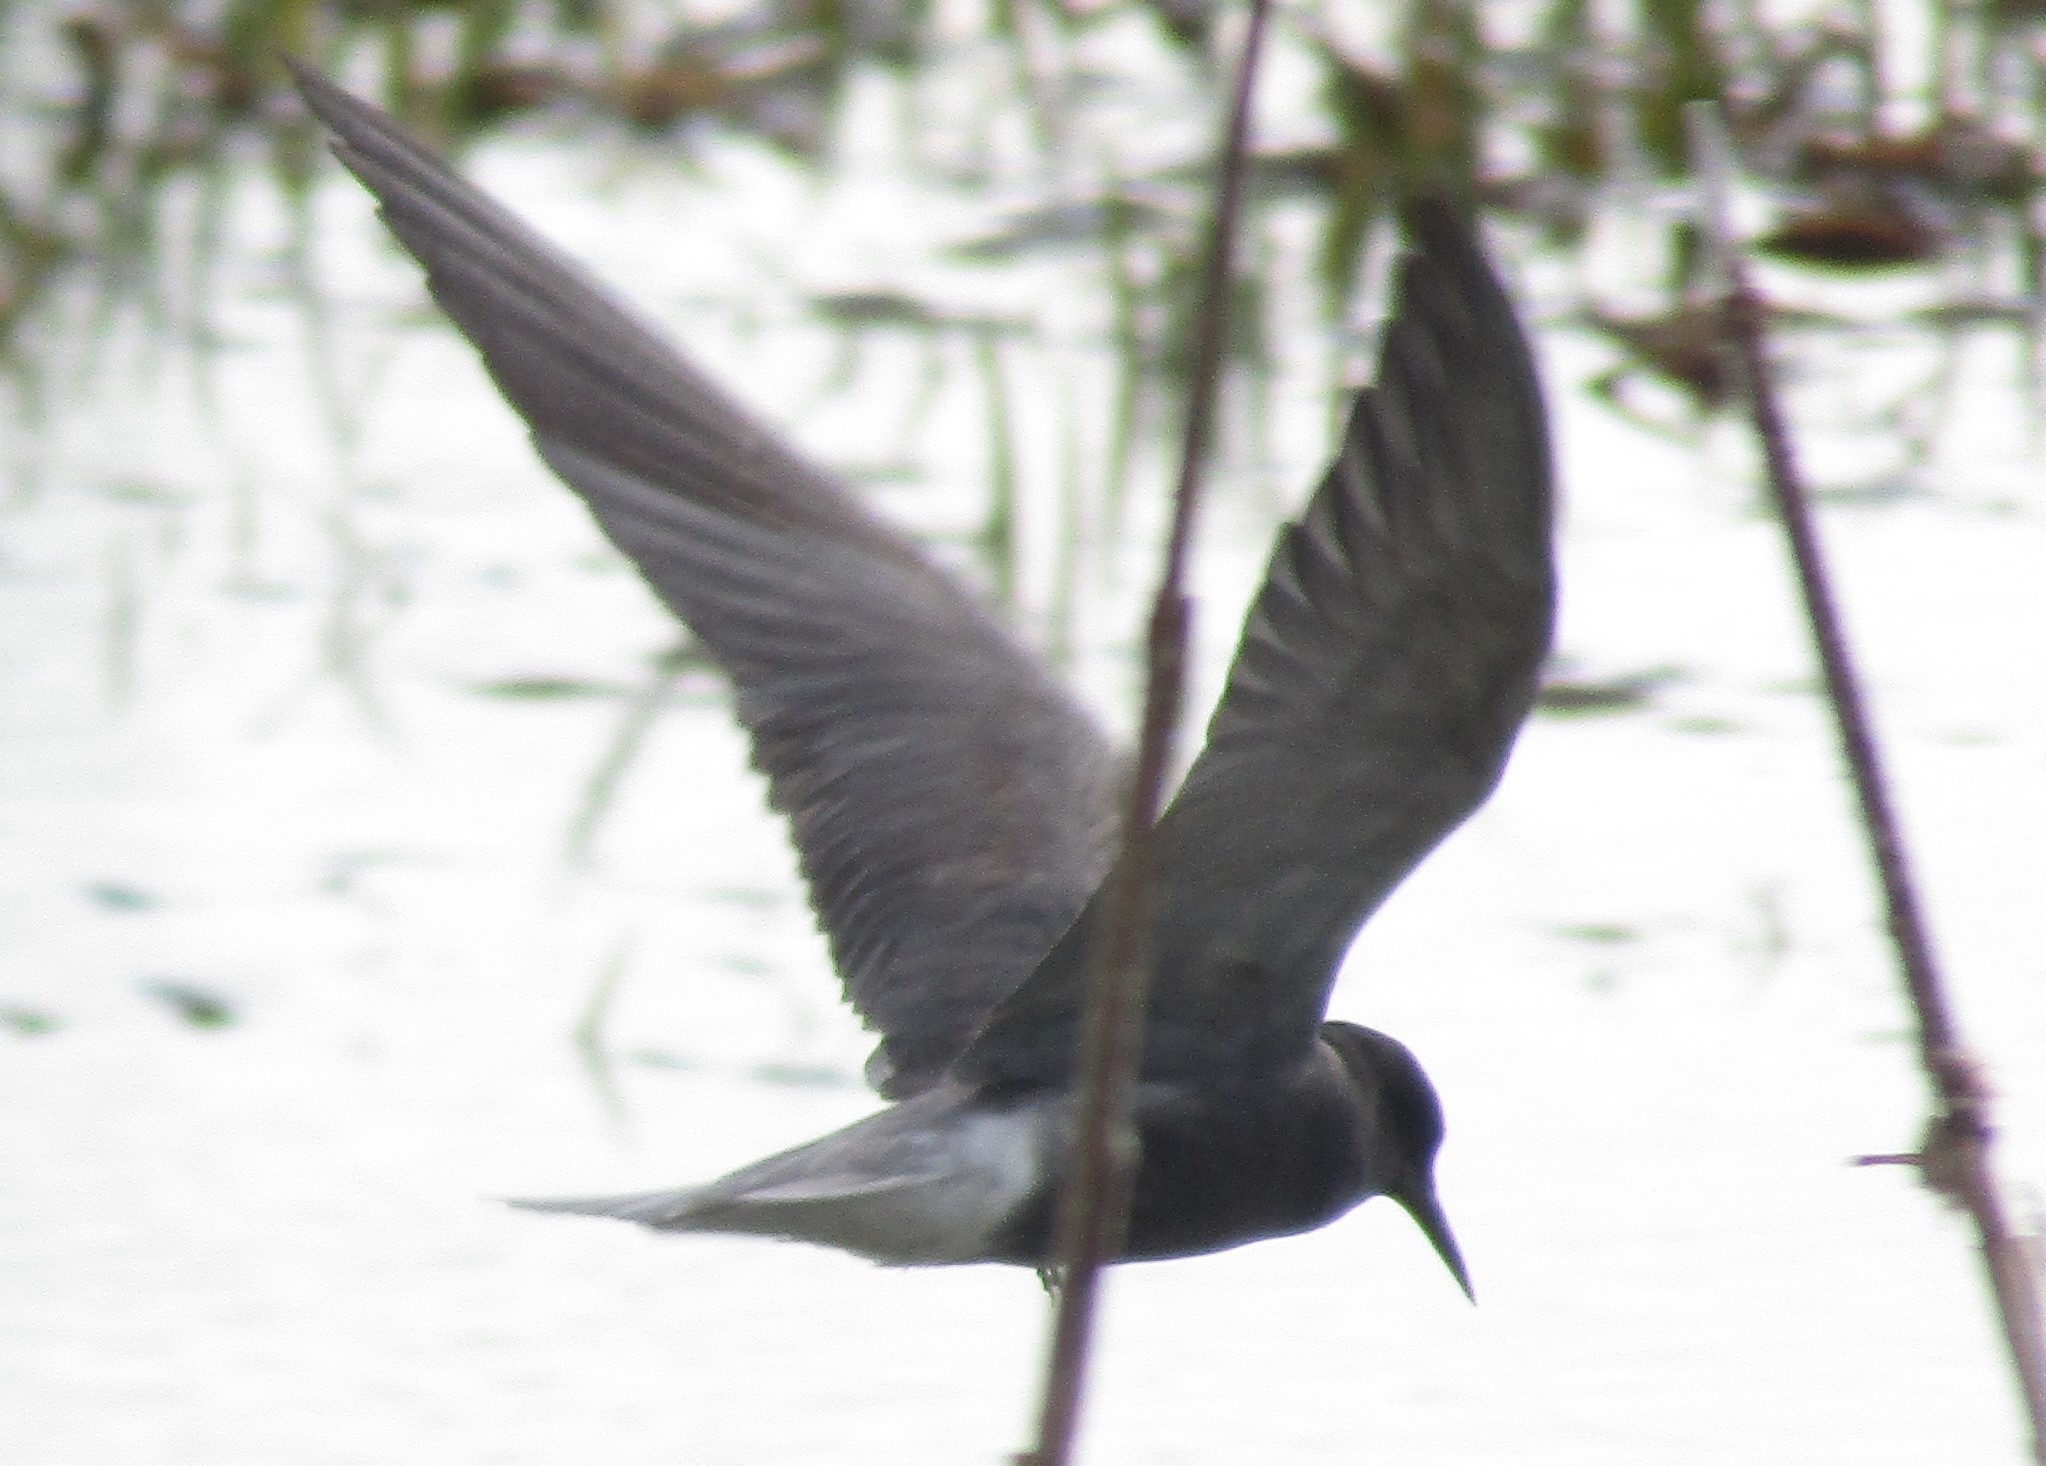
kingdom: Animalia
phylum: Chordata
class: Aves
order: Charadriiformes
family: Laridae
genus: Chlidonias
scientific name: Chlidonias niger
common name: Black tern
